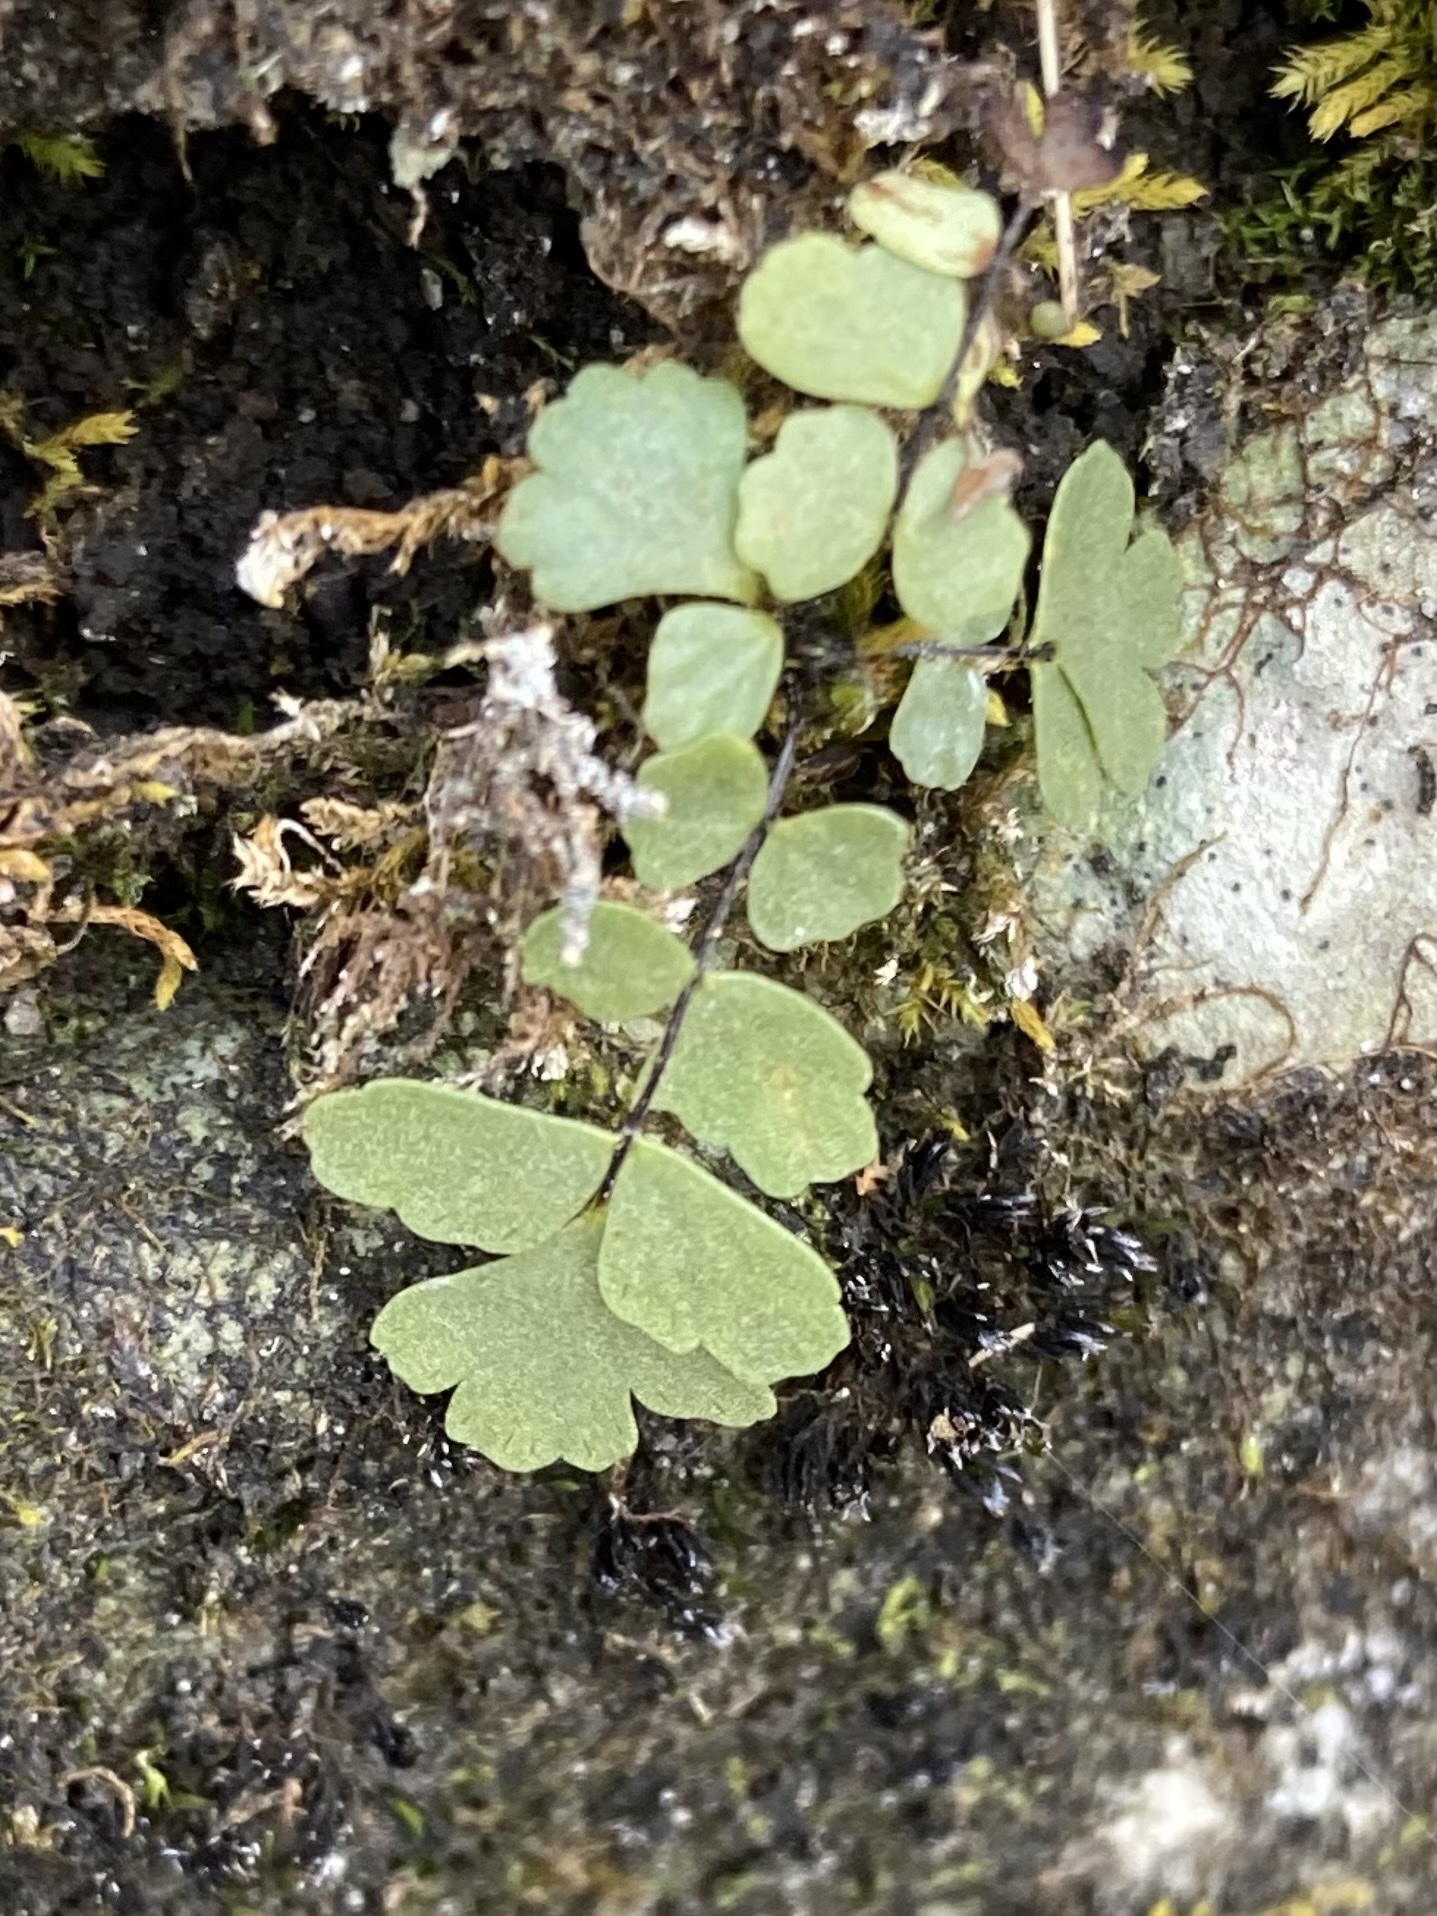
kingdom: Plantae
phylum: Tracheophyta
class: Polypodiopsida
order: Polypodiales
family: Aspleniaceae
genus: Asplenium
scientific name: Asplenium resiliens
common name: Blackstem spleenwort
